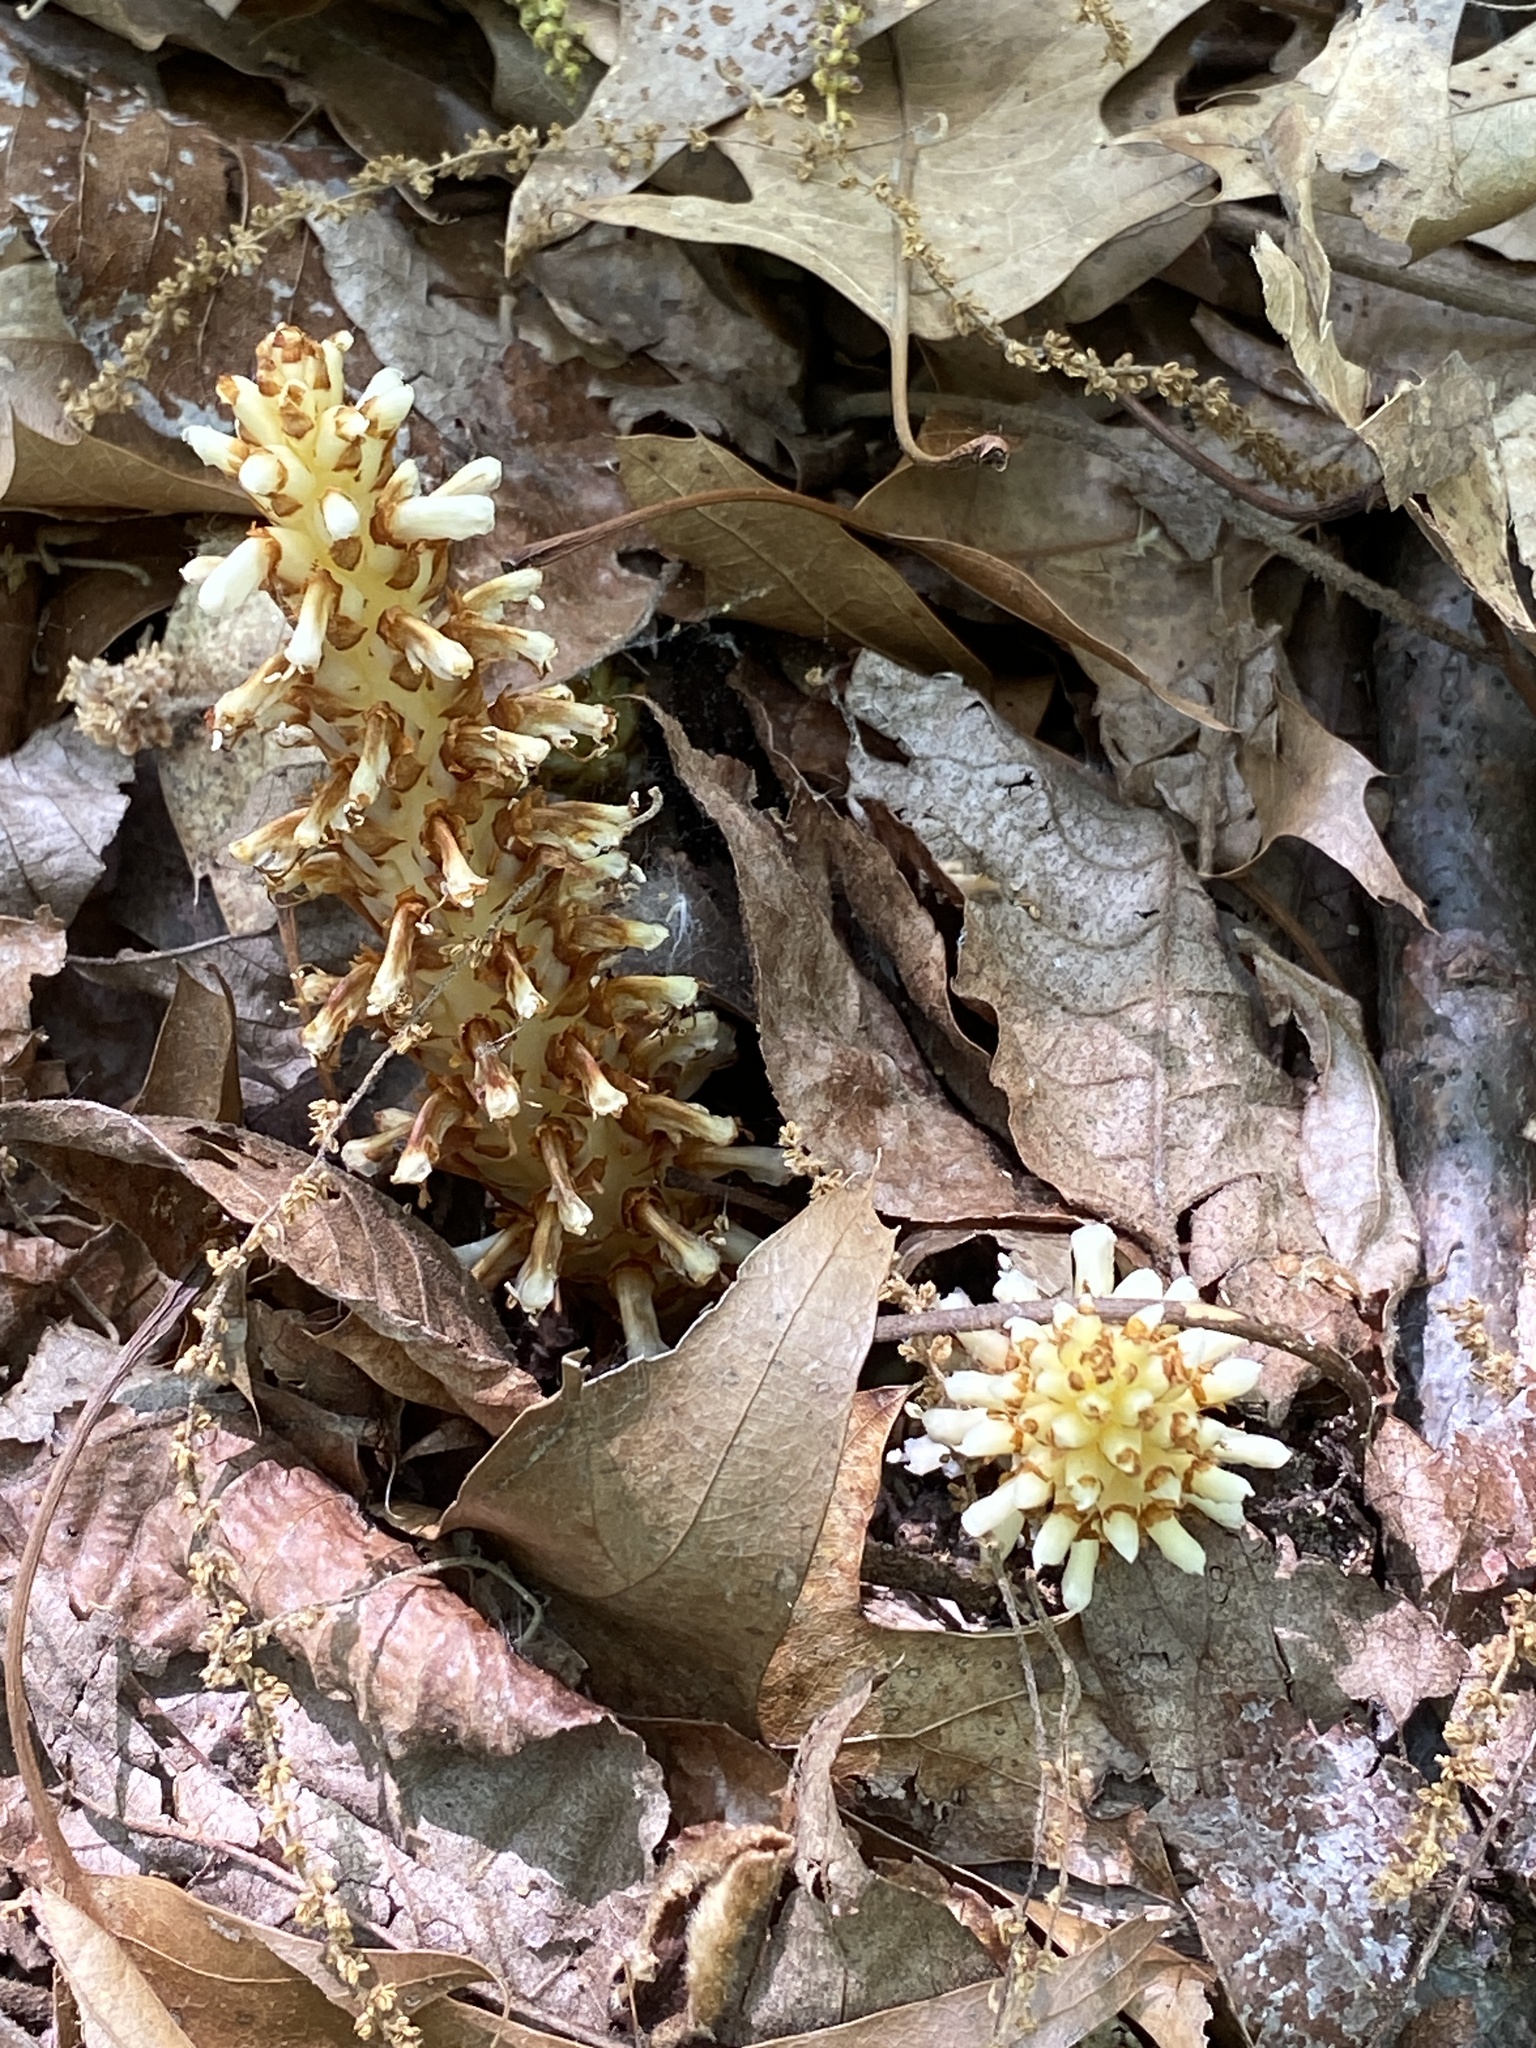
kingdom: Plantae
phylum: Tracheophyta
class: Magnoliopsida
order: Lamiales
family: Orobanchaceae
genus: Conopholis
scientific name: Conopholis americana
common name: American cancer-root
